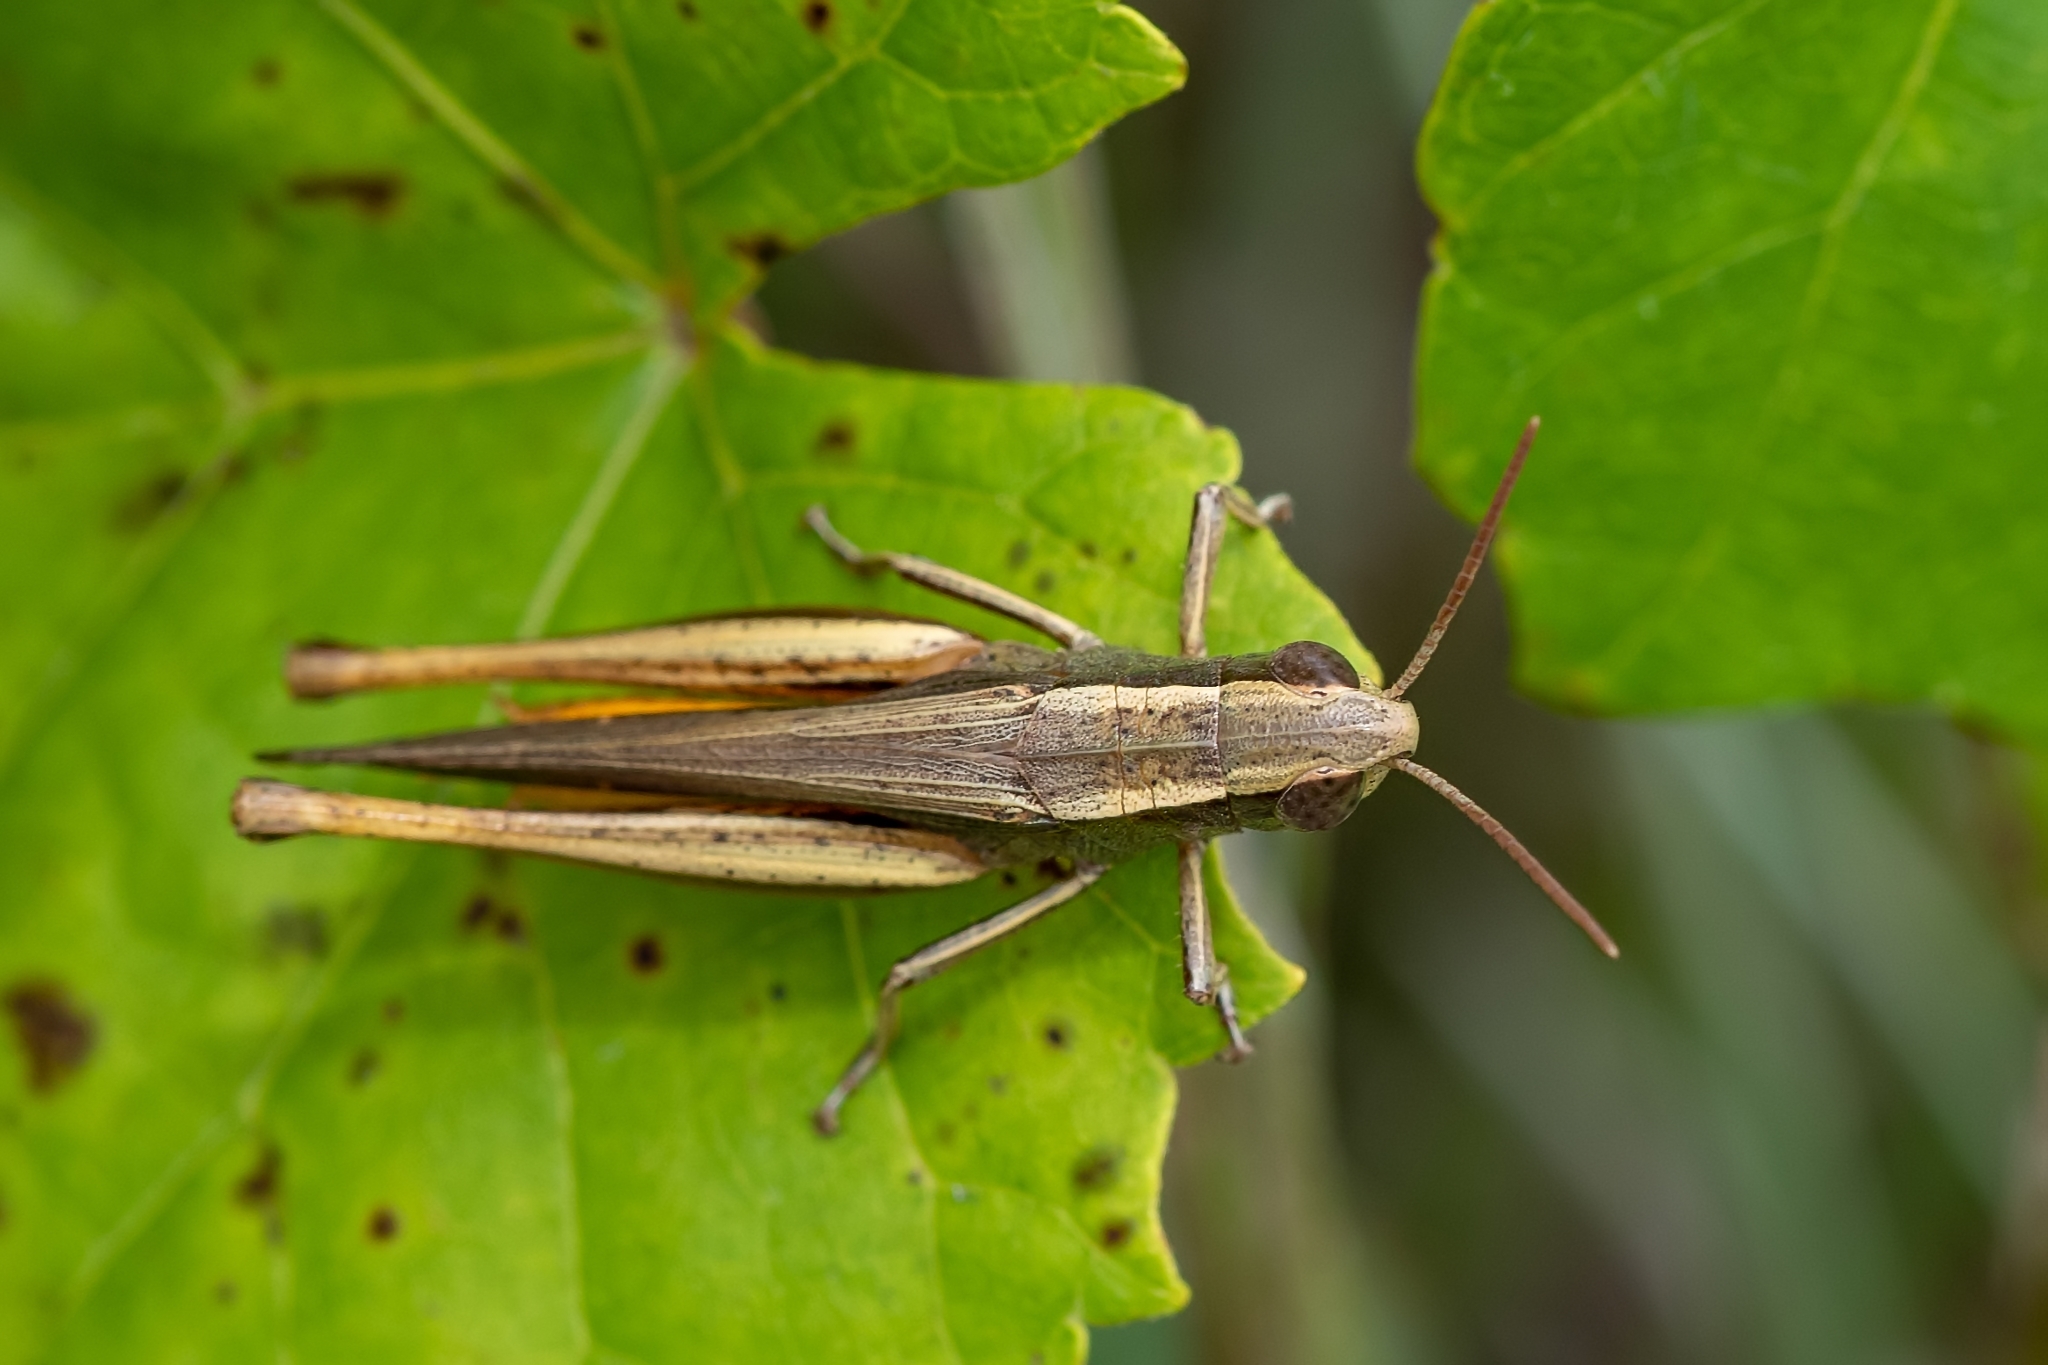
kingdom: Animalia
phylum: Arthropoda
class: Insecta
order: Orthoptera
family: Acrididae
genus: Amblytropidia
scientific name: Amblytropidia mysteca
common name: Brown winter grasshopper
